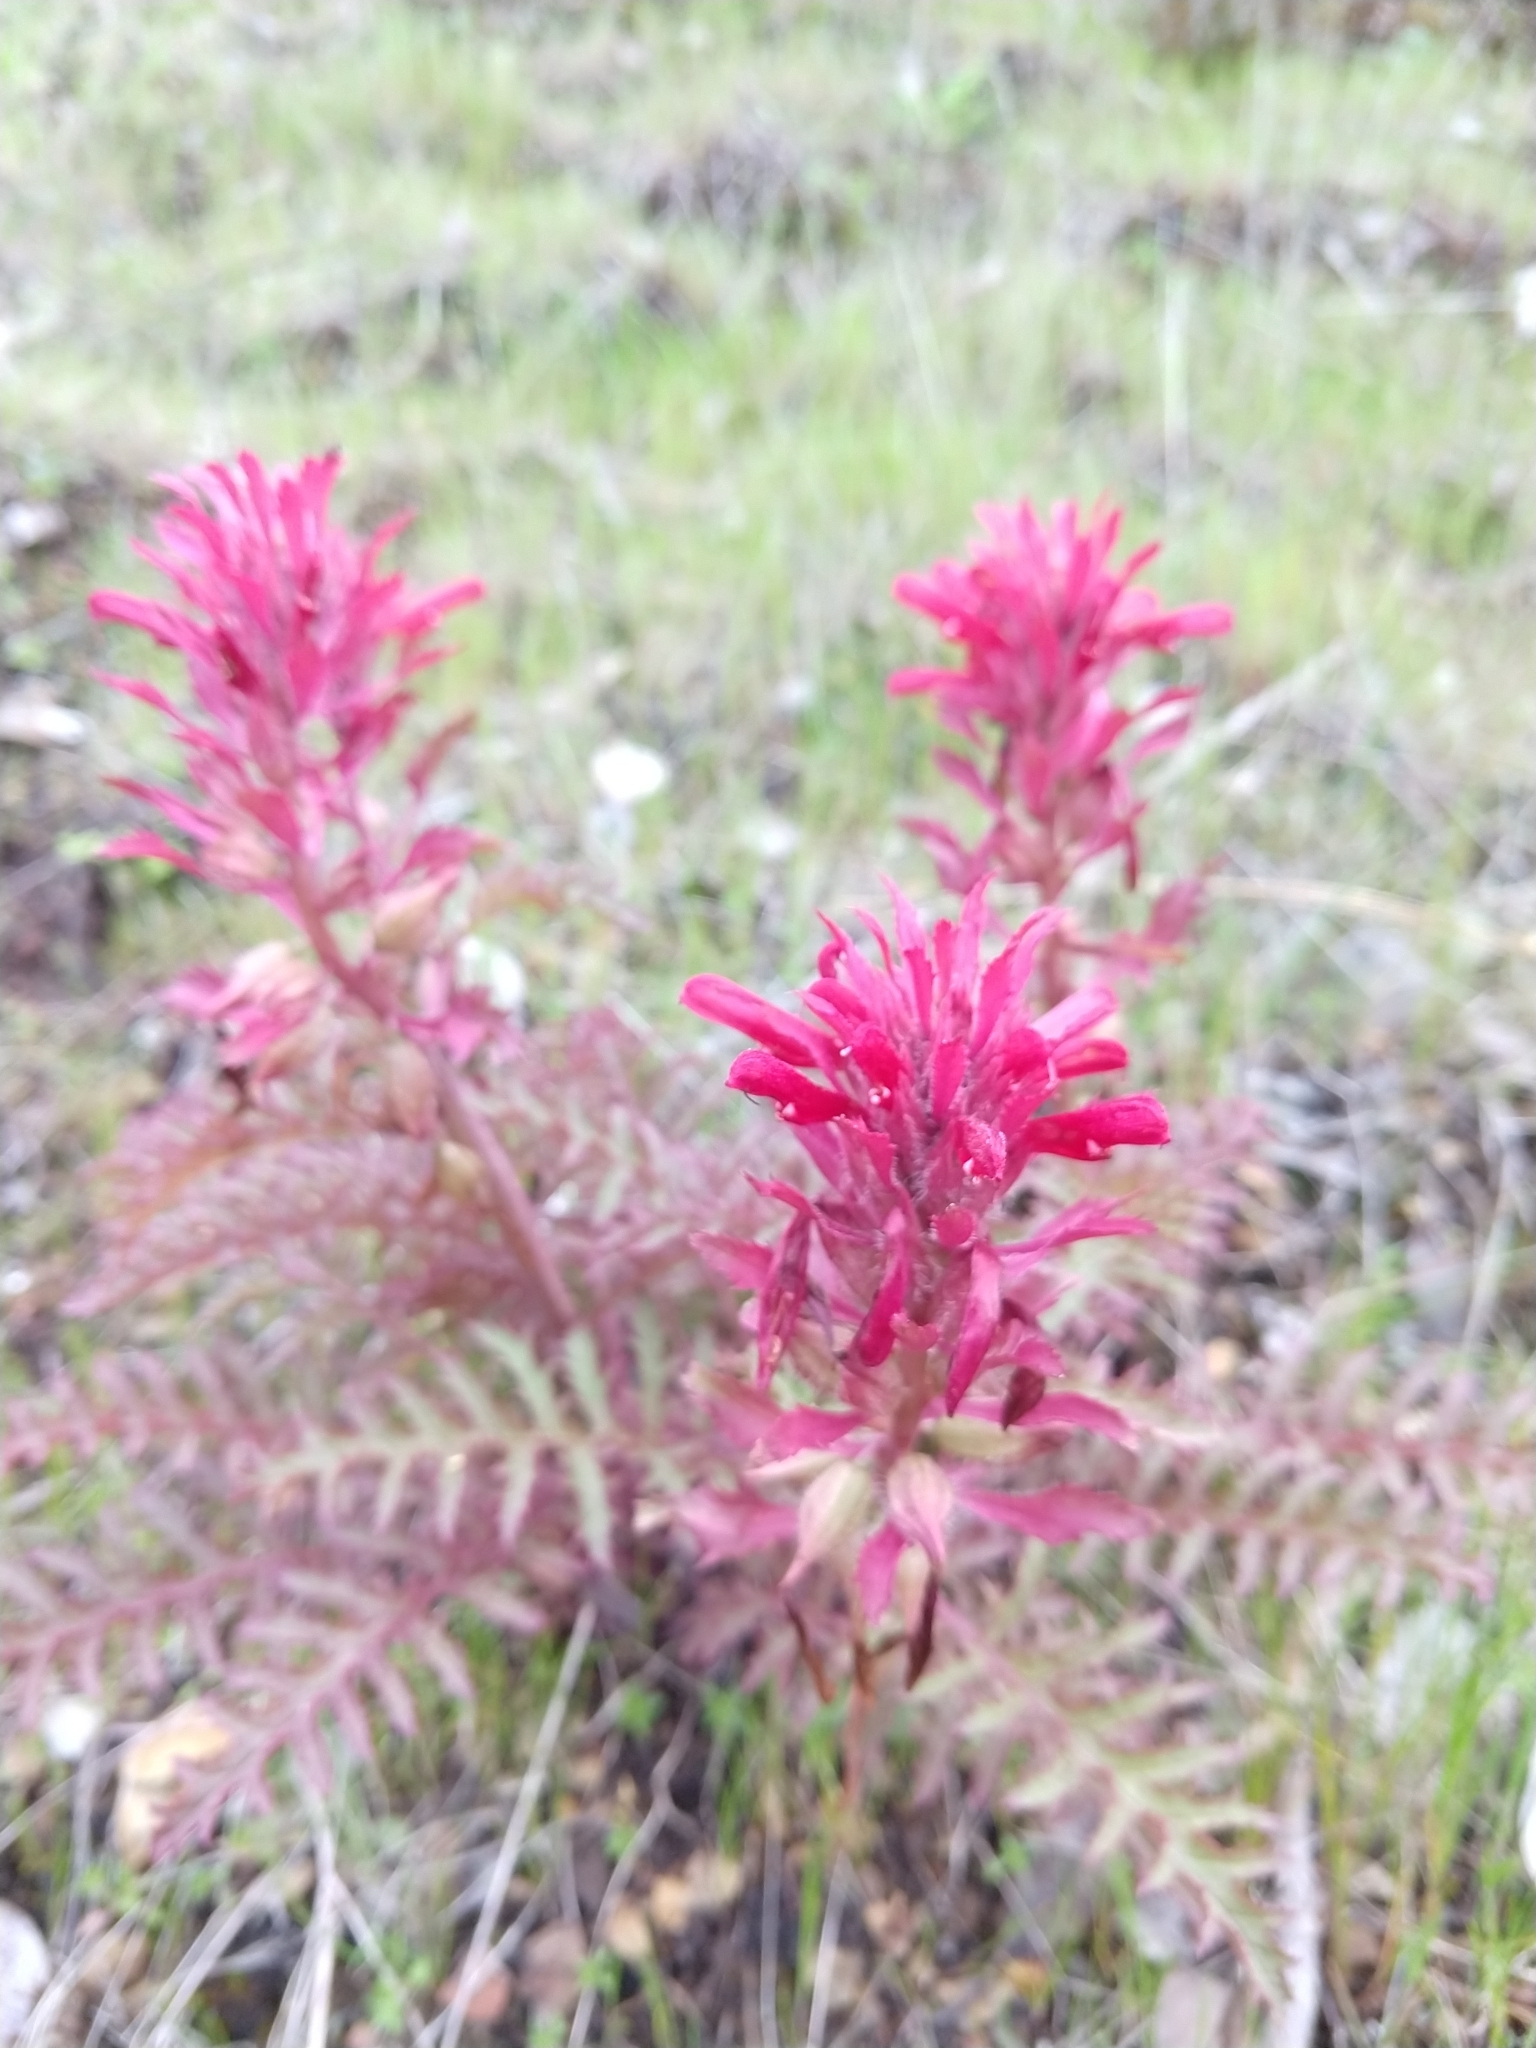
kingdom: Plantae
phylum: Tracheophyta
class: Magnoliopsida
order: Lamiales
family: Orobanchaceae
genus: Pedicularis
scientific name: Pedicularis densiflora
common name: Indian warrior
